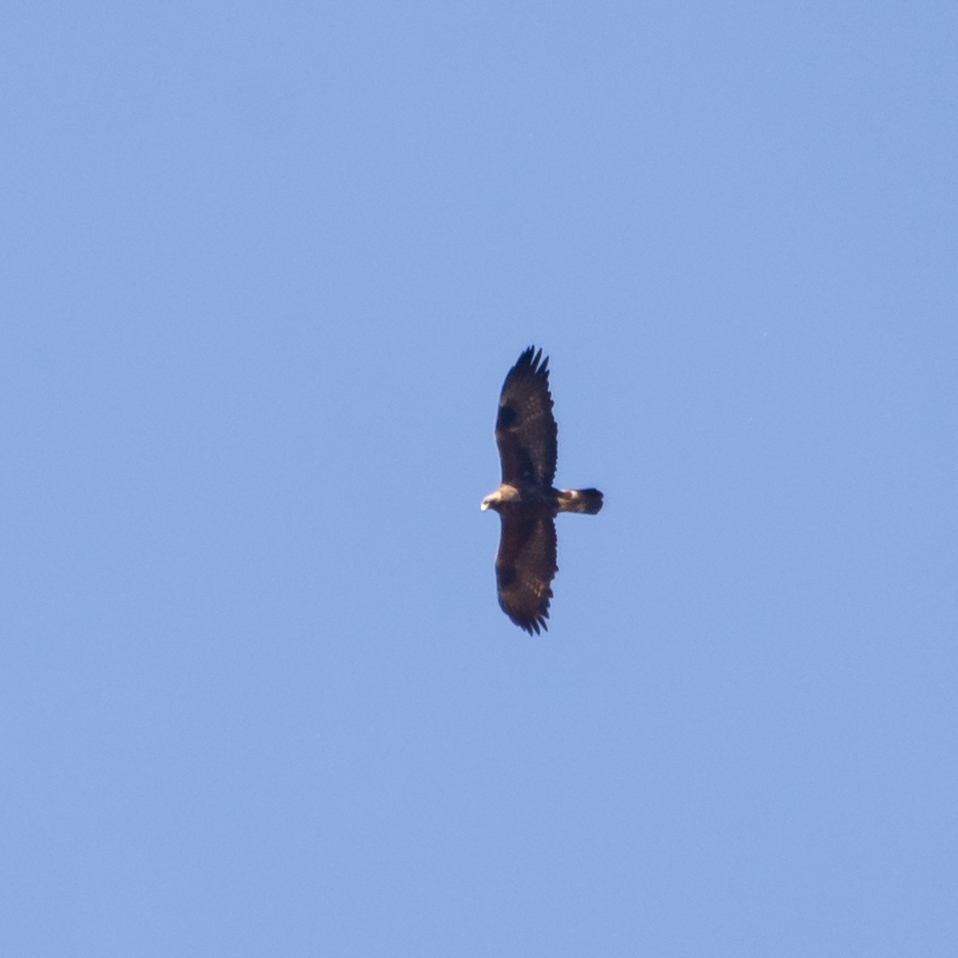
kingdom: Animalia
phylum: Chordata
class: Aves
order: Accipitriformes
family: Accipitridae
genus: Aquila
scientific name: Aquila chrysaetos
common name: Golden eagle
